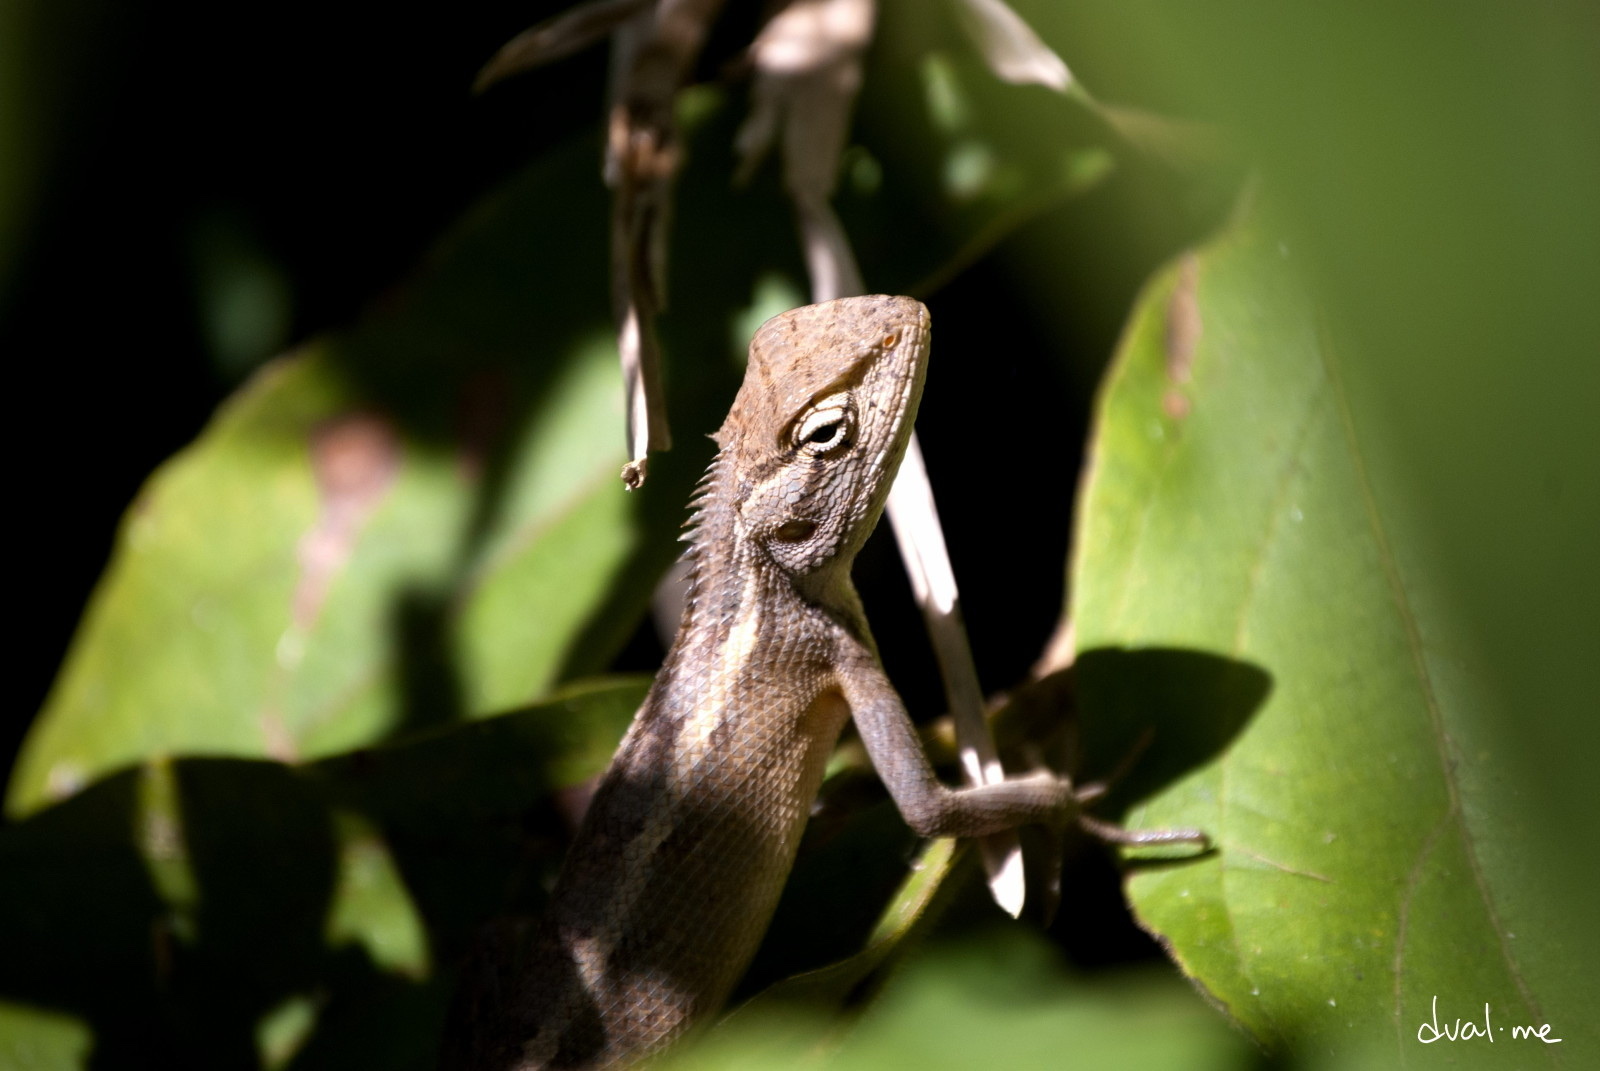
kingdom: Animalia
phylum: Chordata
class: Squamata
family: Agamidae
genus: Calotes
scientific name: Calotes versicolor
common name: Oriental garden lizard
